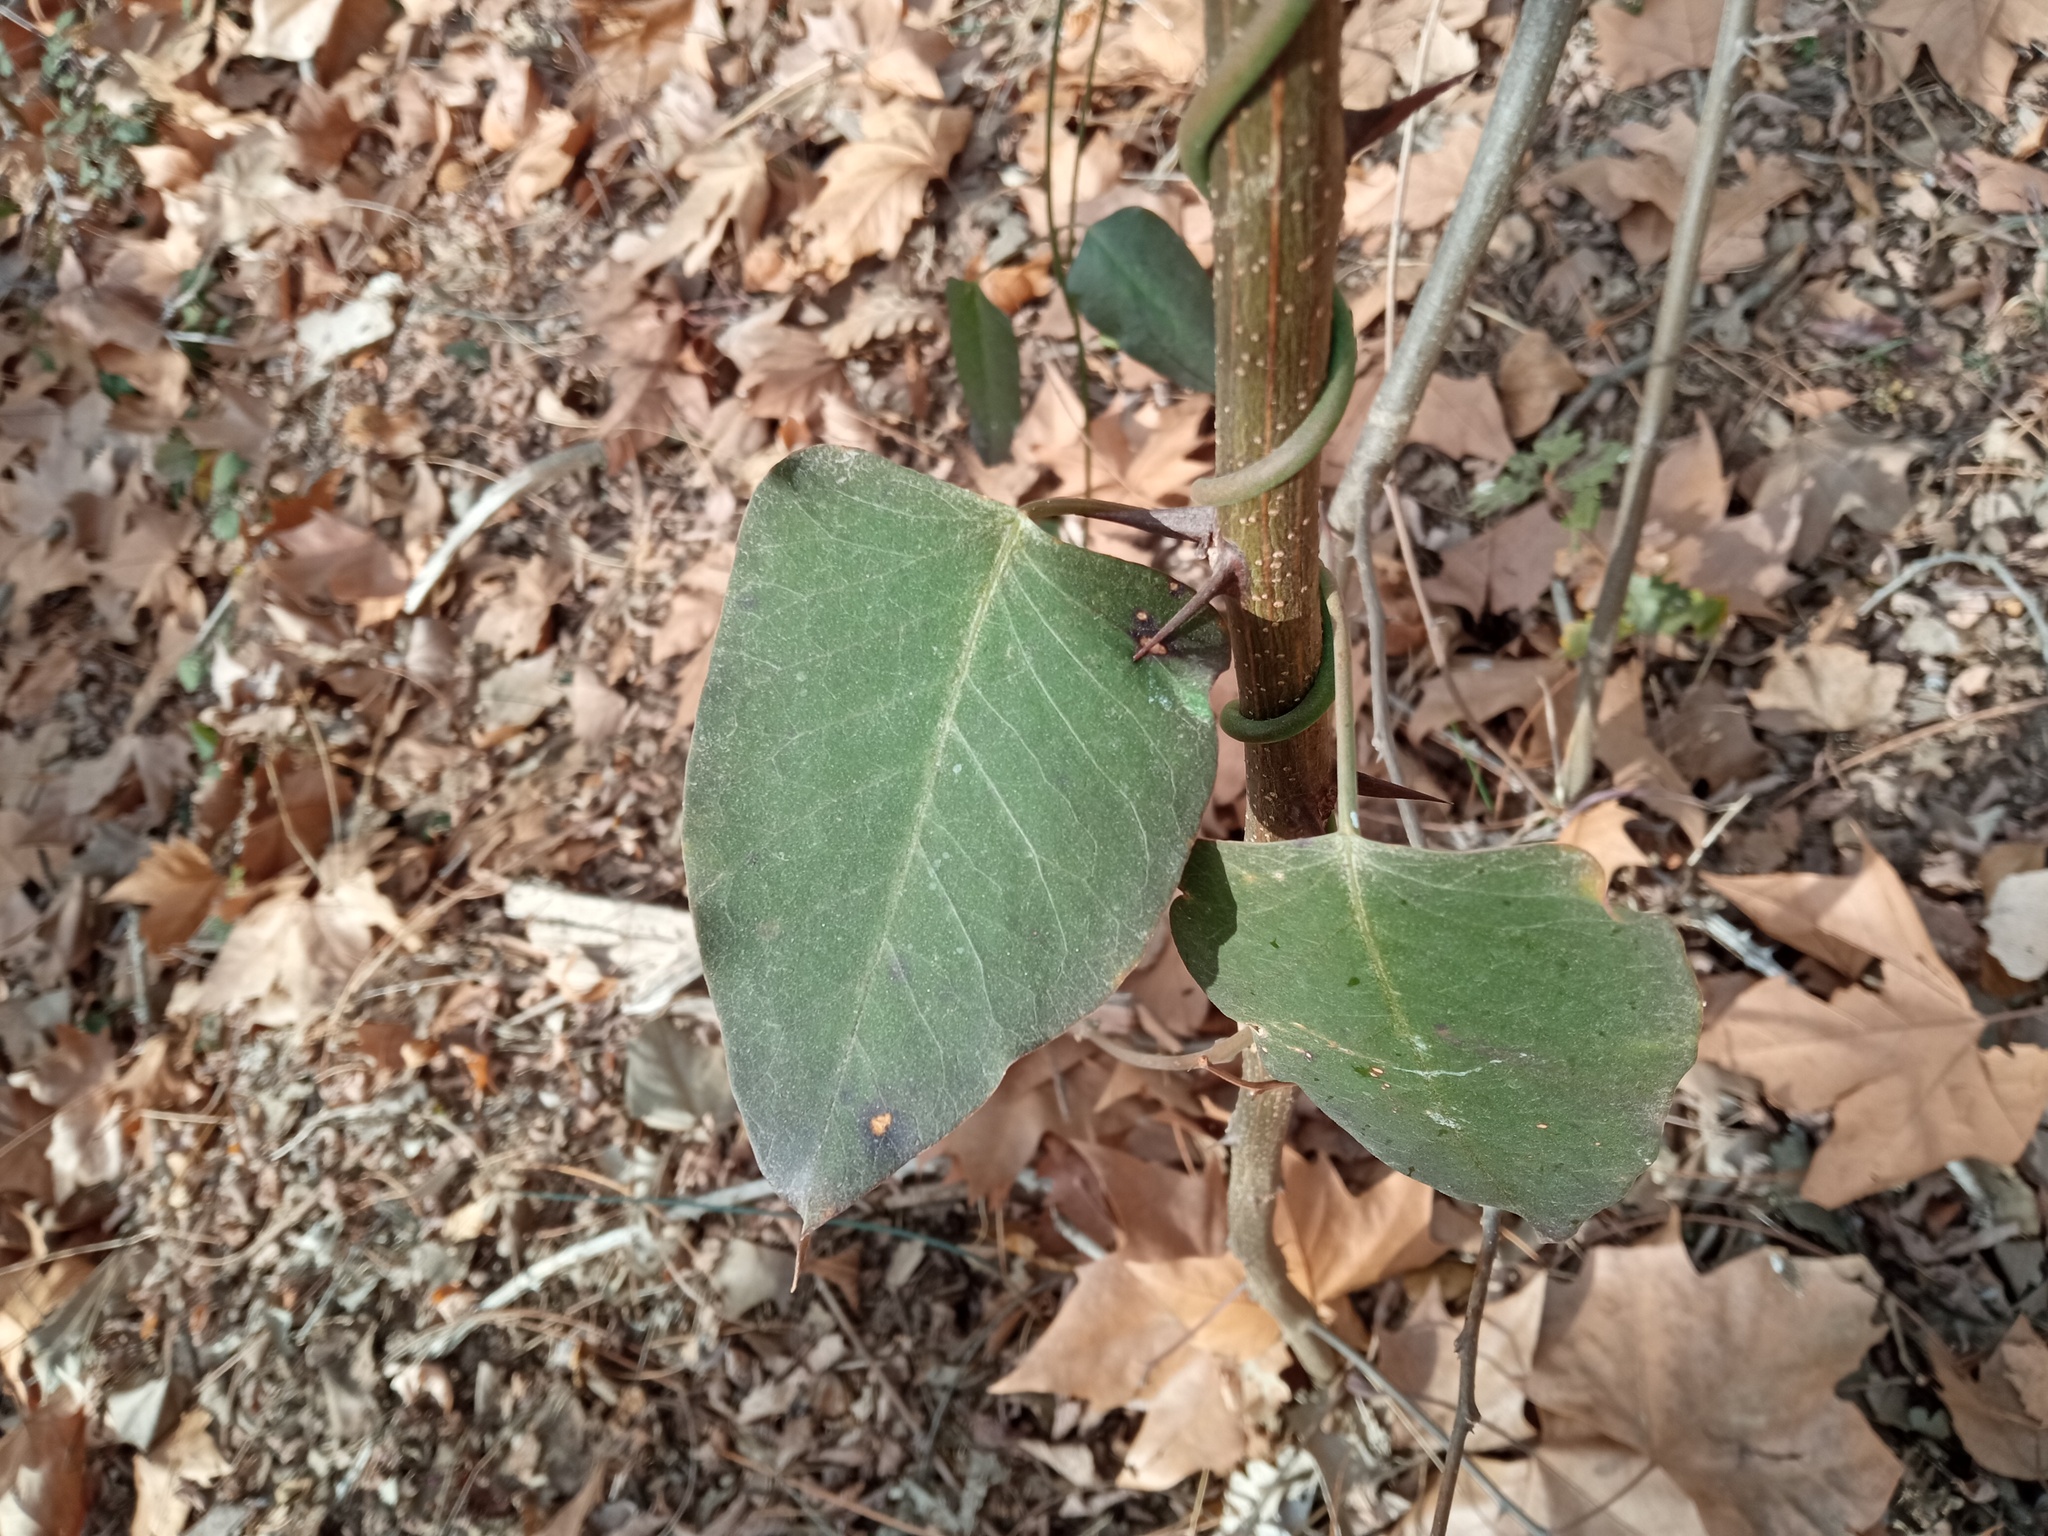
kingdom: Plantae
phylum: Tracheophyta
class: Magnoliopsida
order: Gentianales
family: Apocynaceae
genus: Araujia
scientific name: Araujia sericifera
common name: White bladderflower
